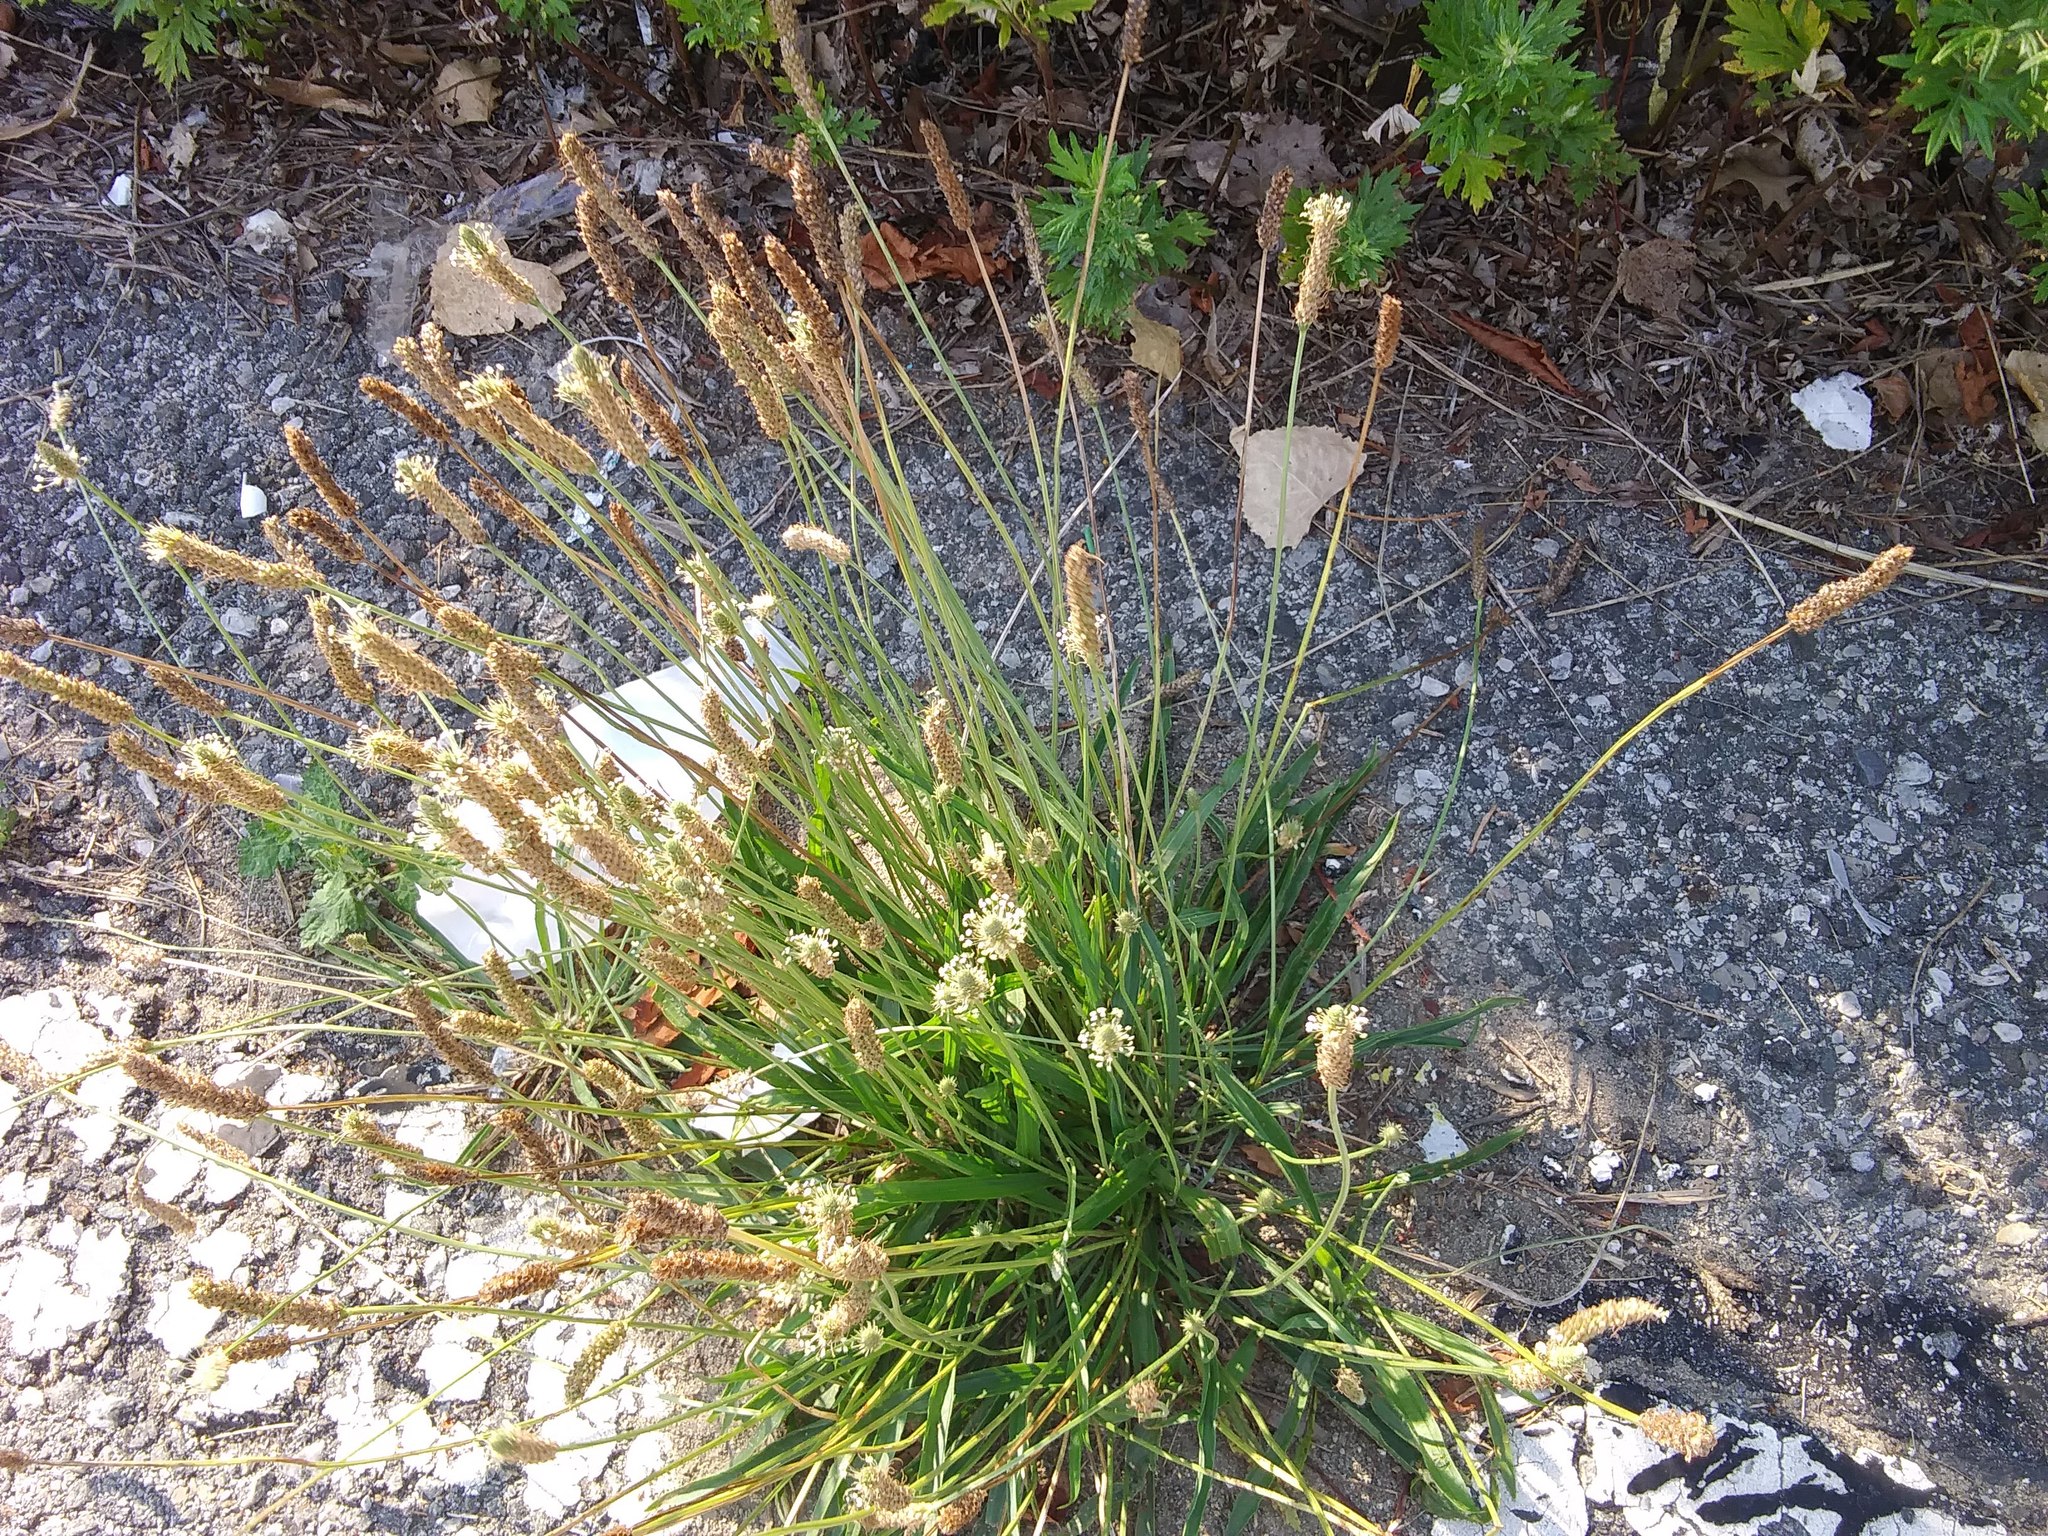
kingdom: Plantae
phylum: Tracheophyta
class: Magnoliopsida
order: Lamiales
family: Plantaginaceae
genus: Plantago
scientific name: Plantago lanceolata
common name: Ribwort plantain
